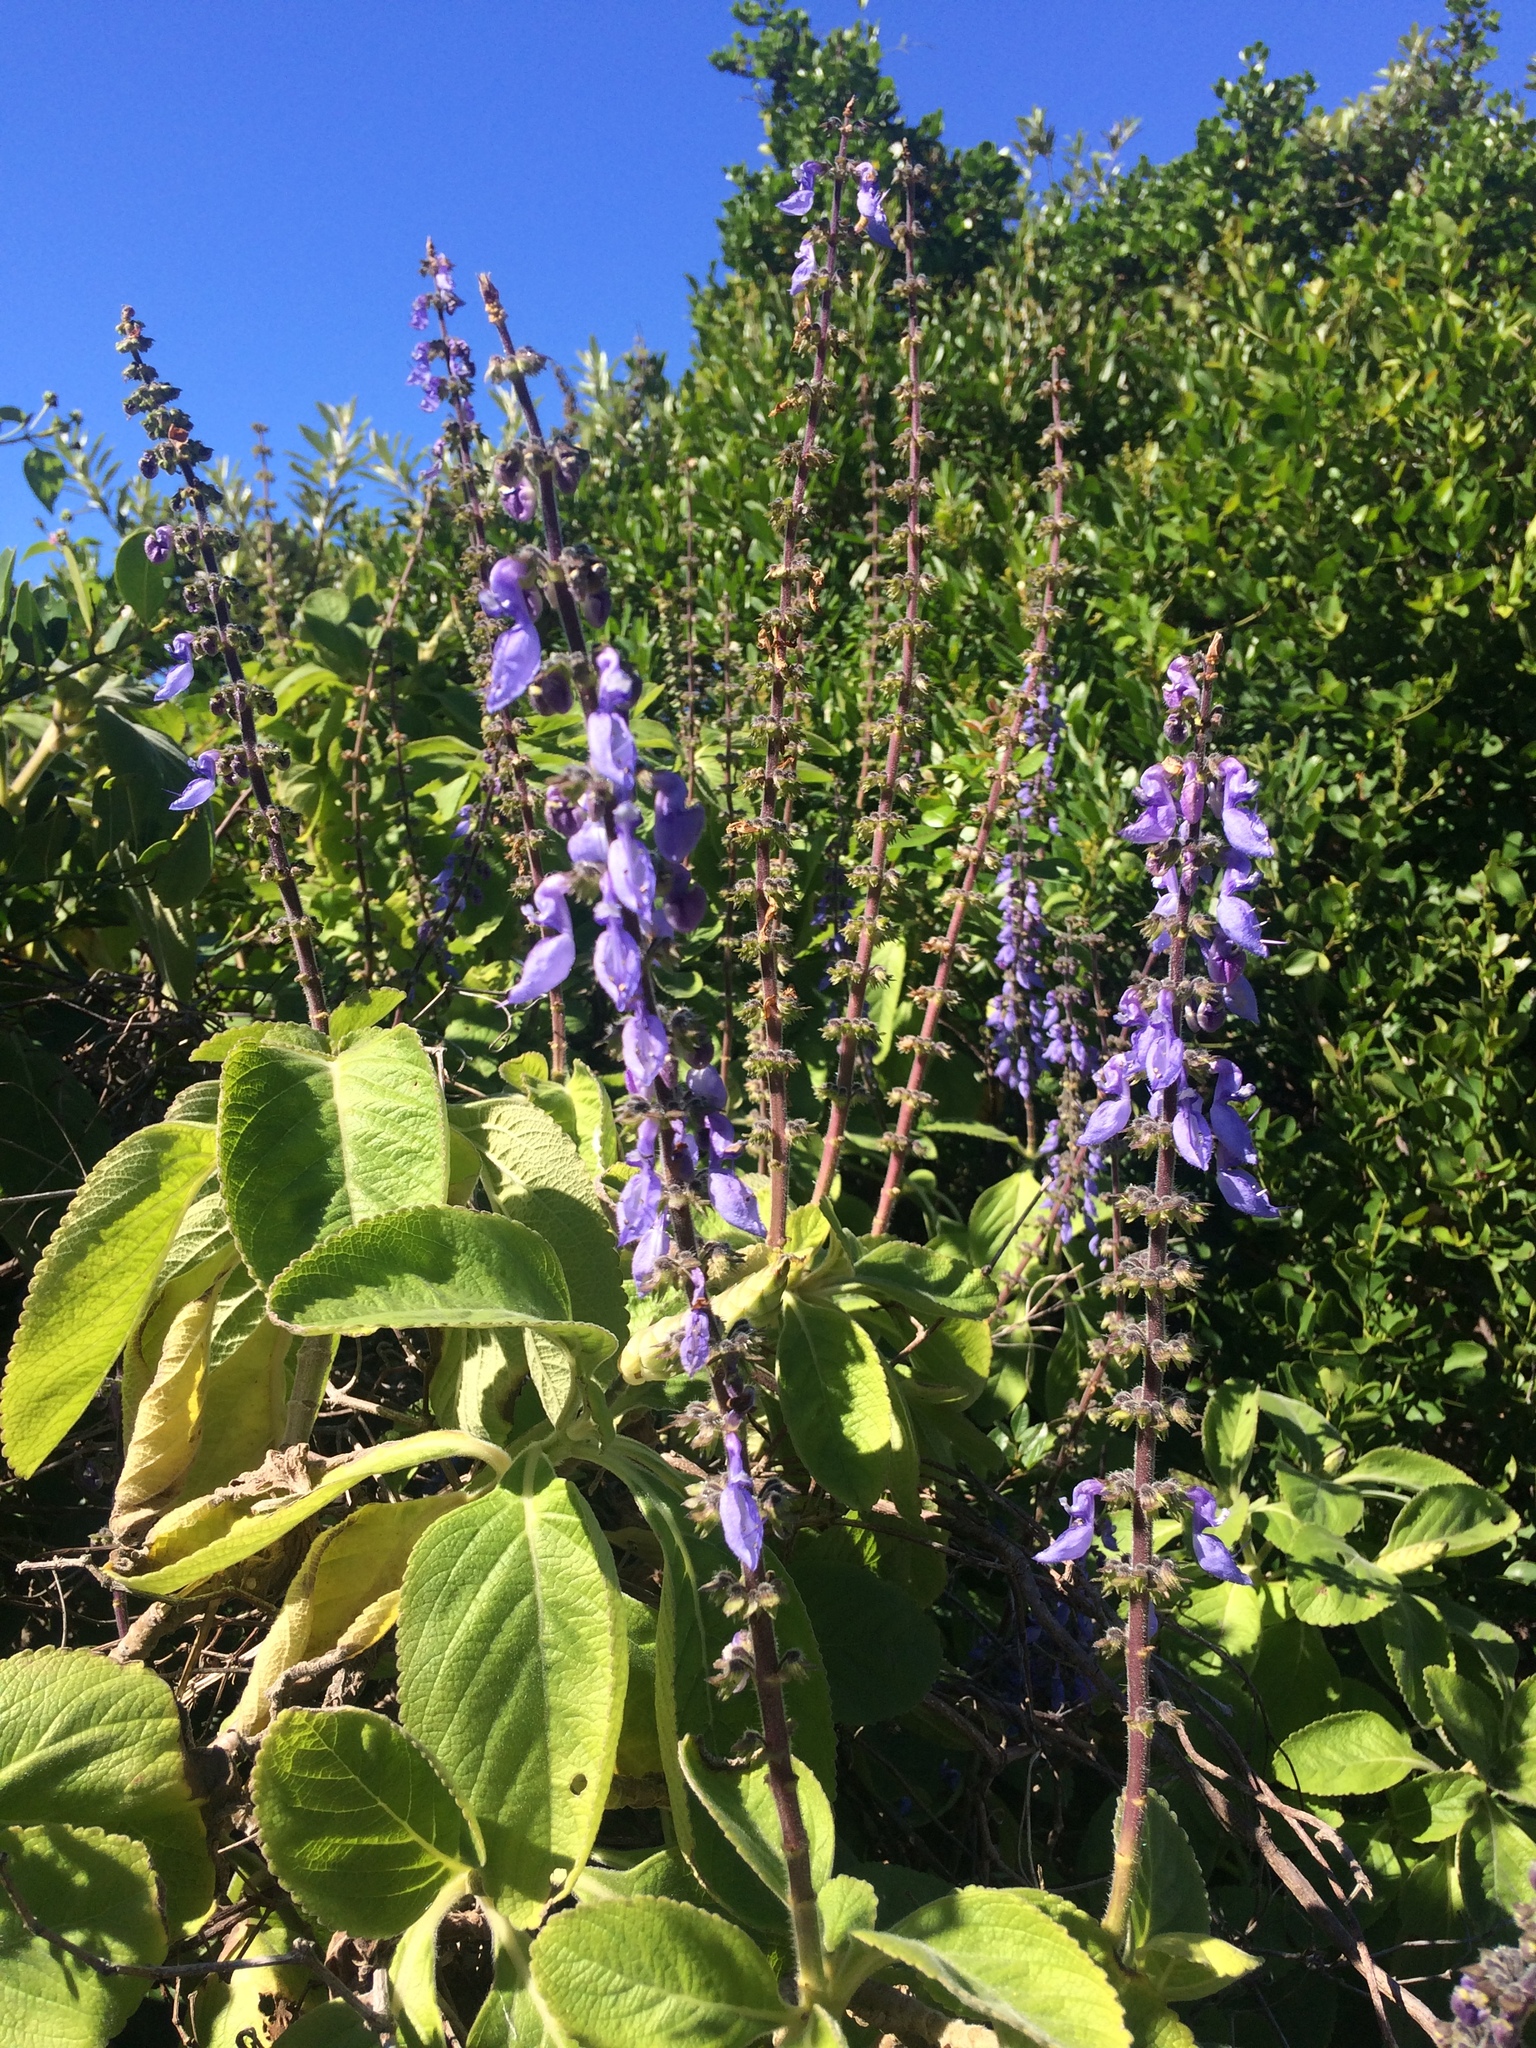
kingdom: Plantae
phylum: Tracheophyta
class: Magnoliopsida
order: Lamiales
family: Lamiaceae
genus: Coleus
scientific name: Coleus barbatus
